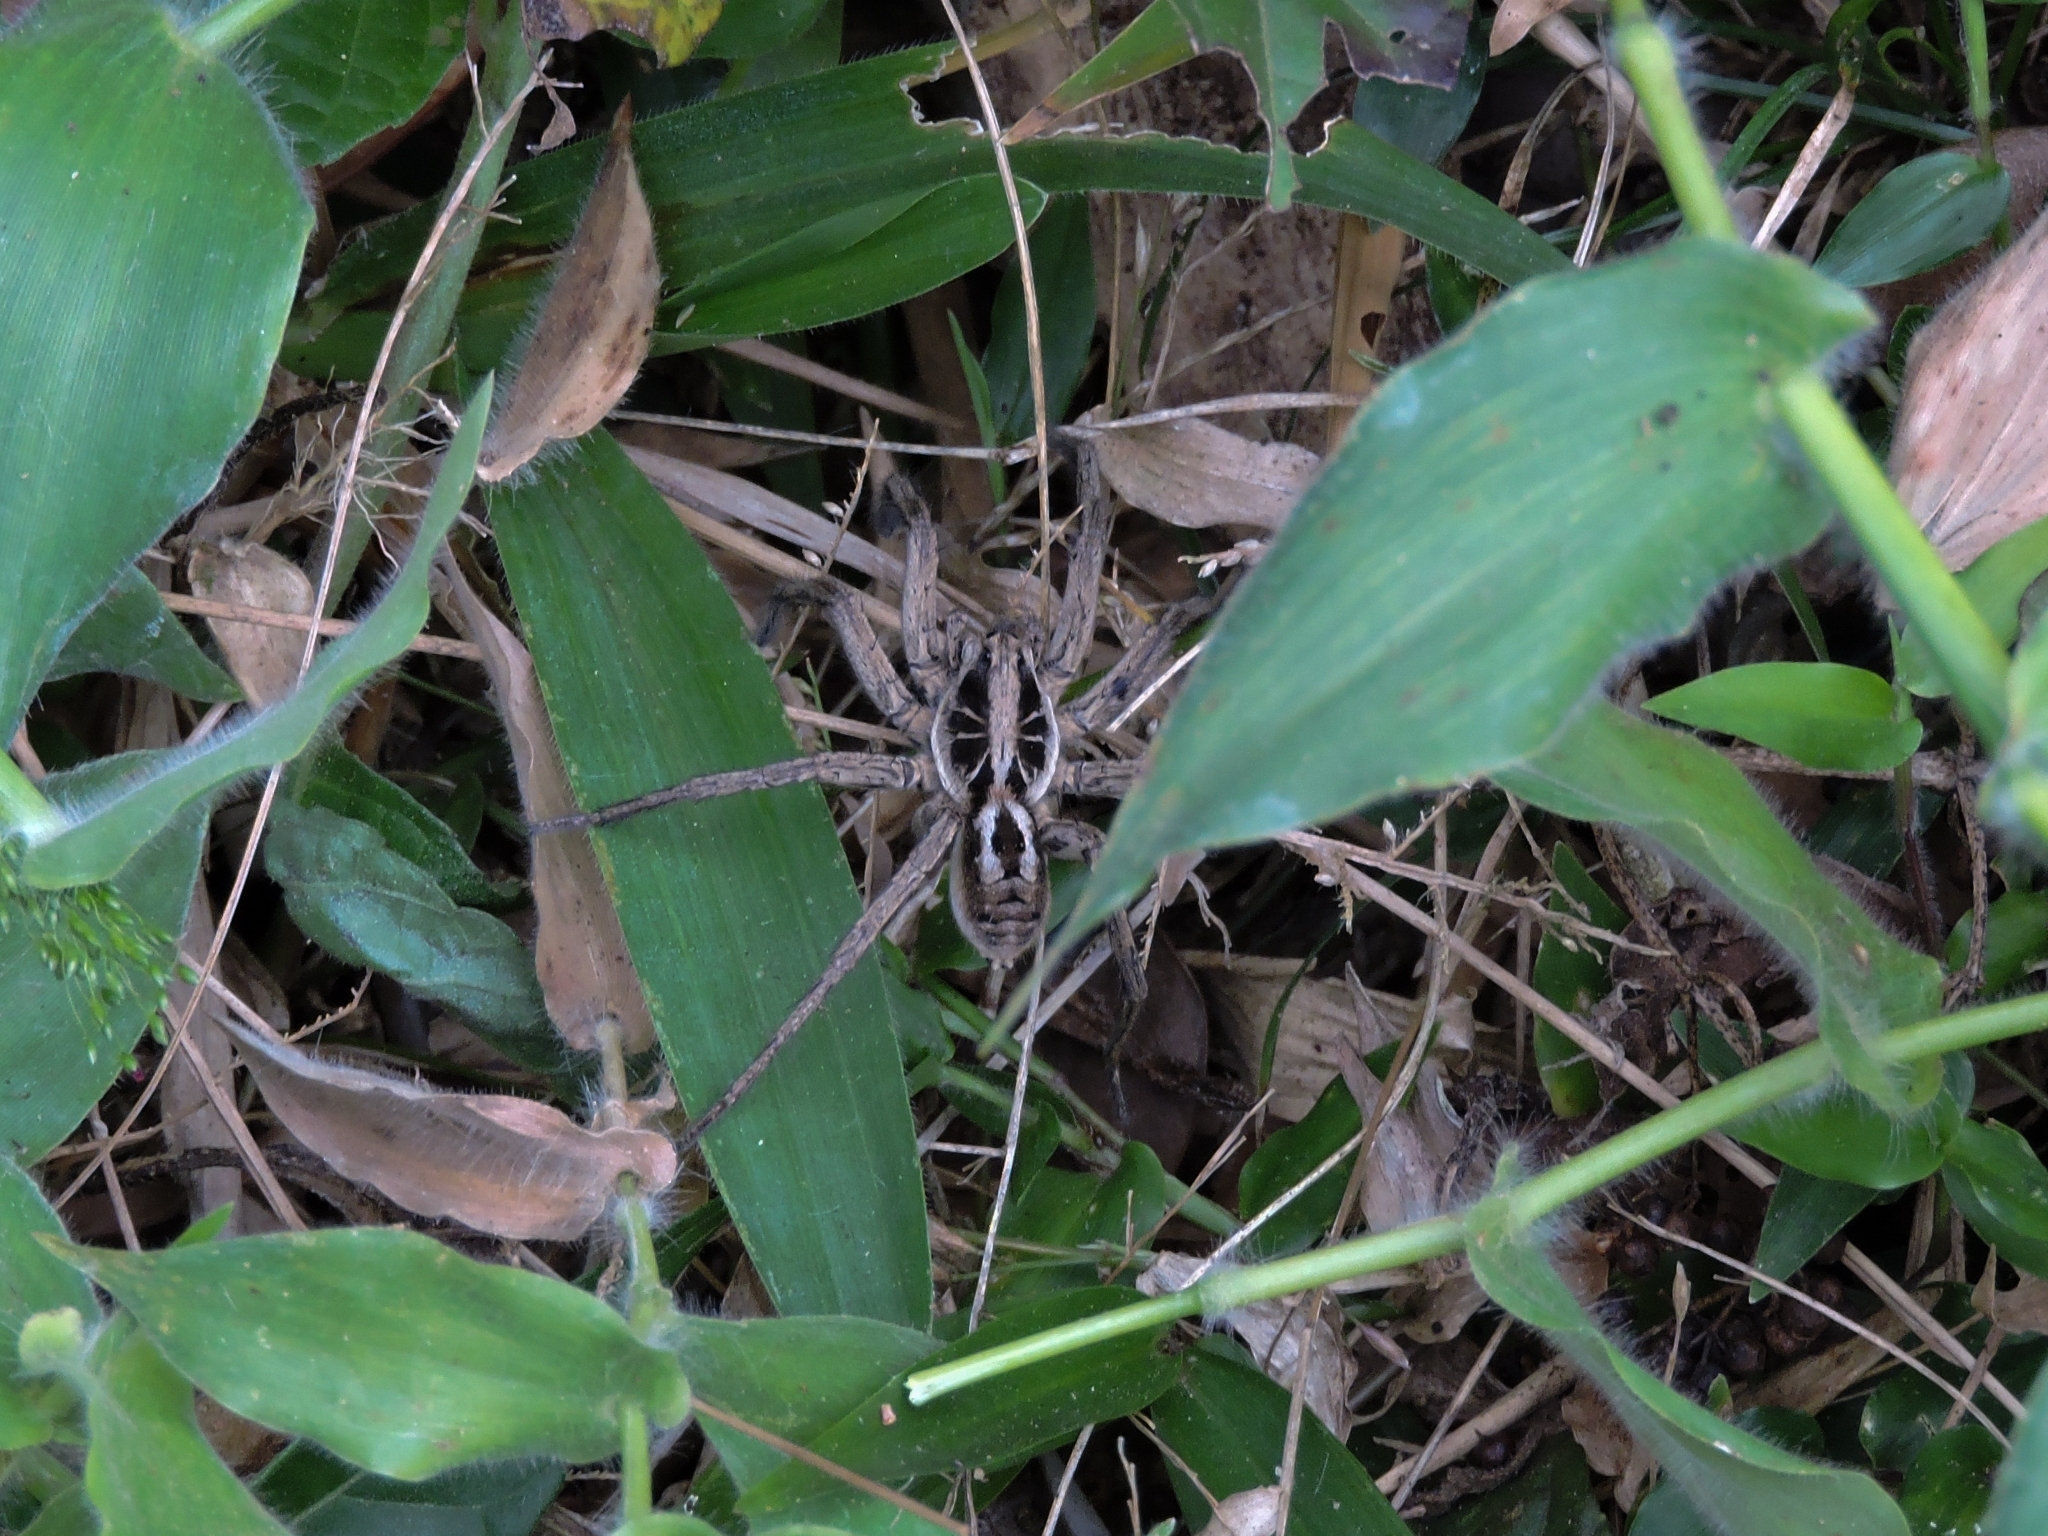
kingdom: Animalia
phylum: Arthropoda
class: Arachnida
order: Araneae
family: Lycosidae
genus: Lycosa
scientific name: Lycosa erythrognatha
